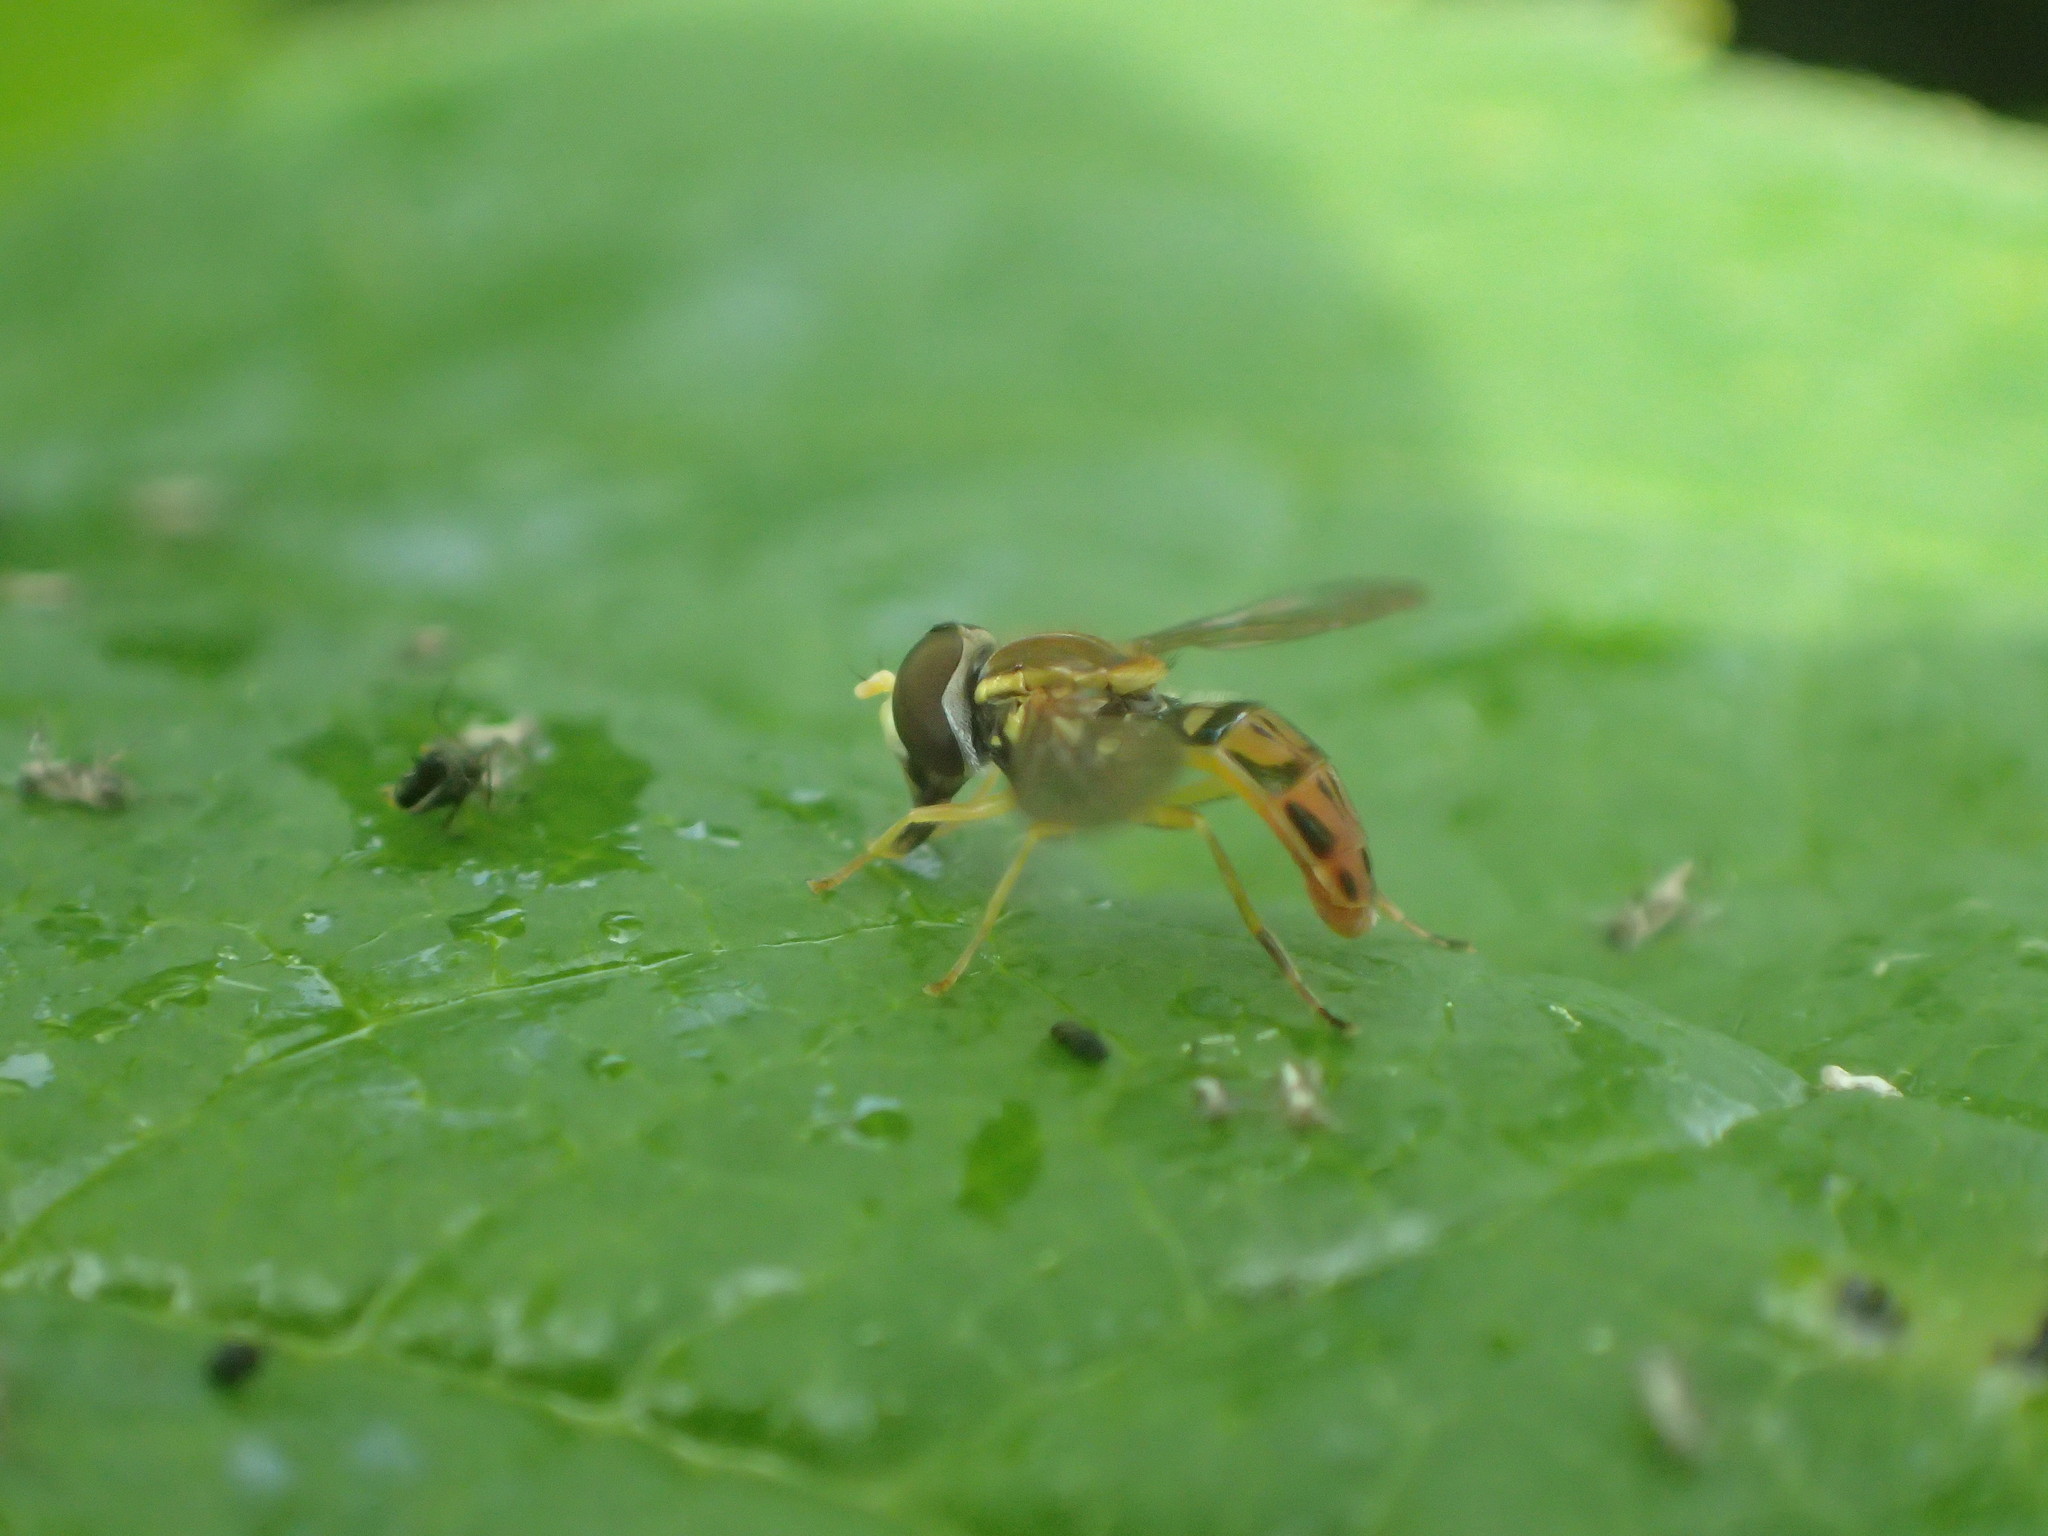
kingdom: Animalia
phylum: Arthropoda
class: Insecta
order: Diptera
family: Syrphidae
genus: Toxomerus
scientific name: Toxomerus marginatus
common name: Syrphid fly
